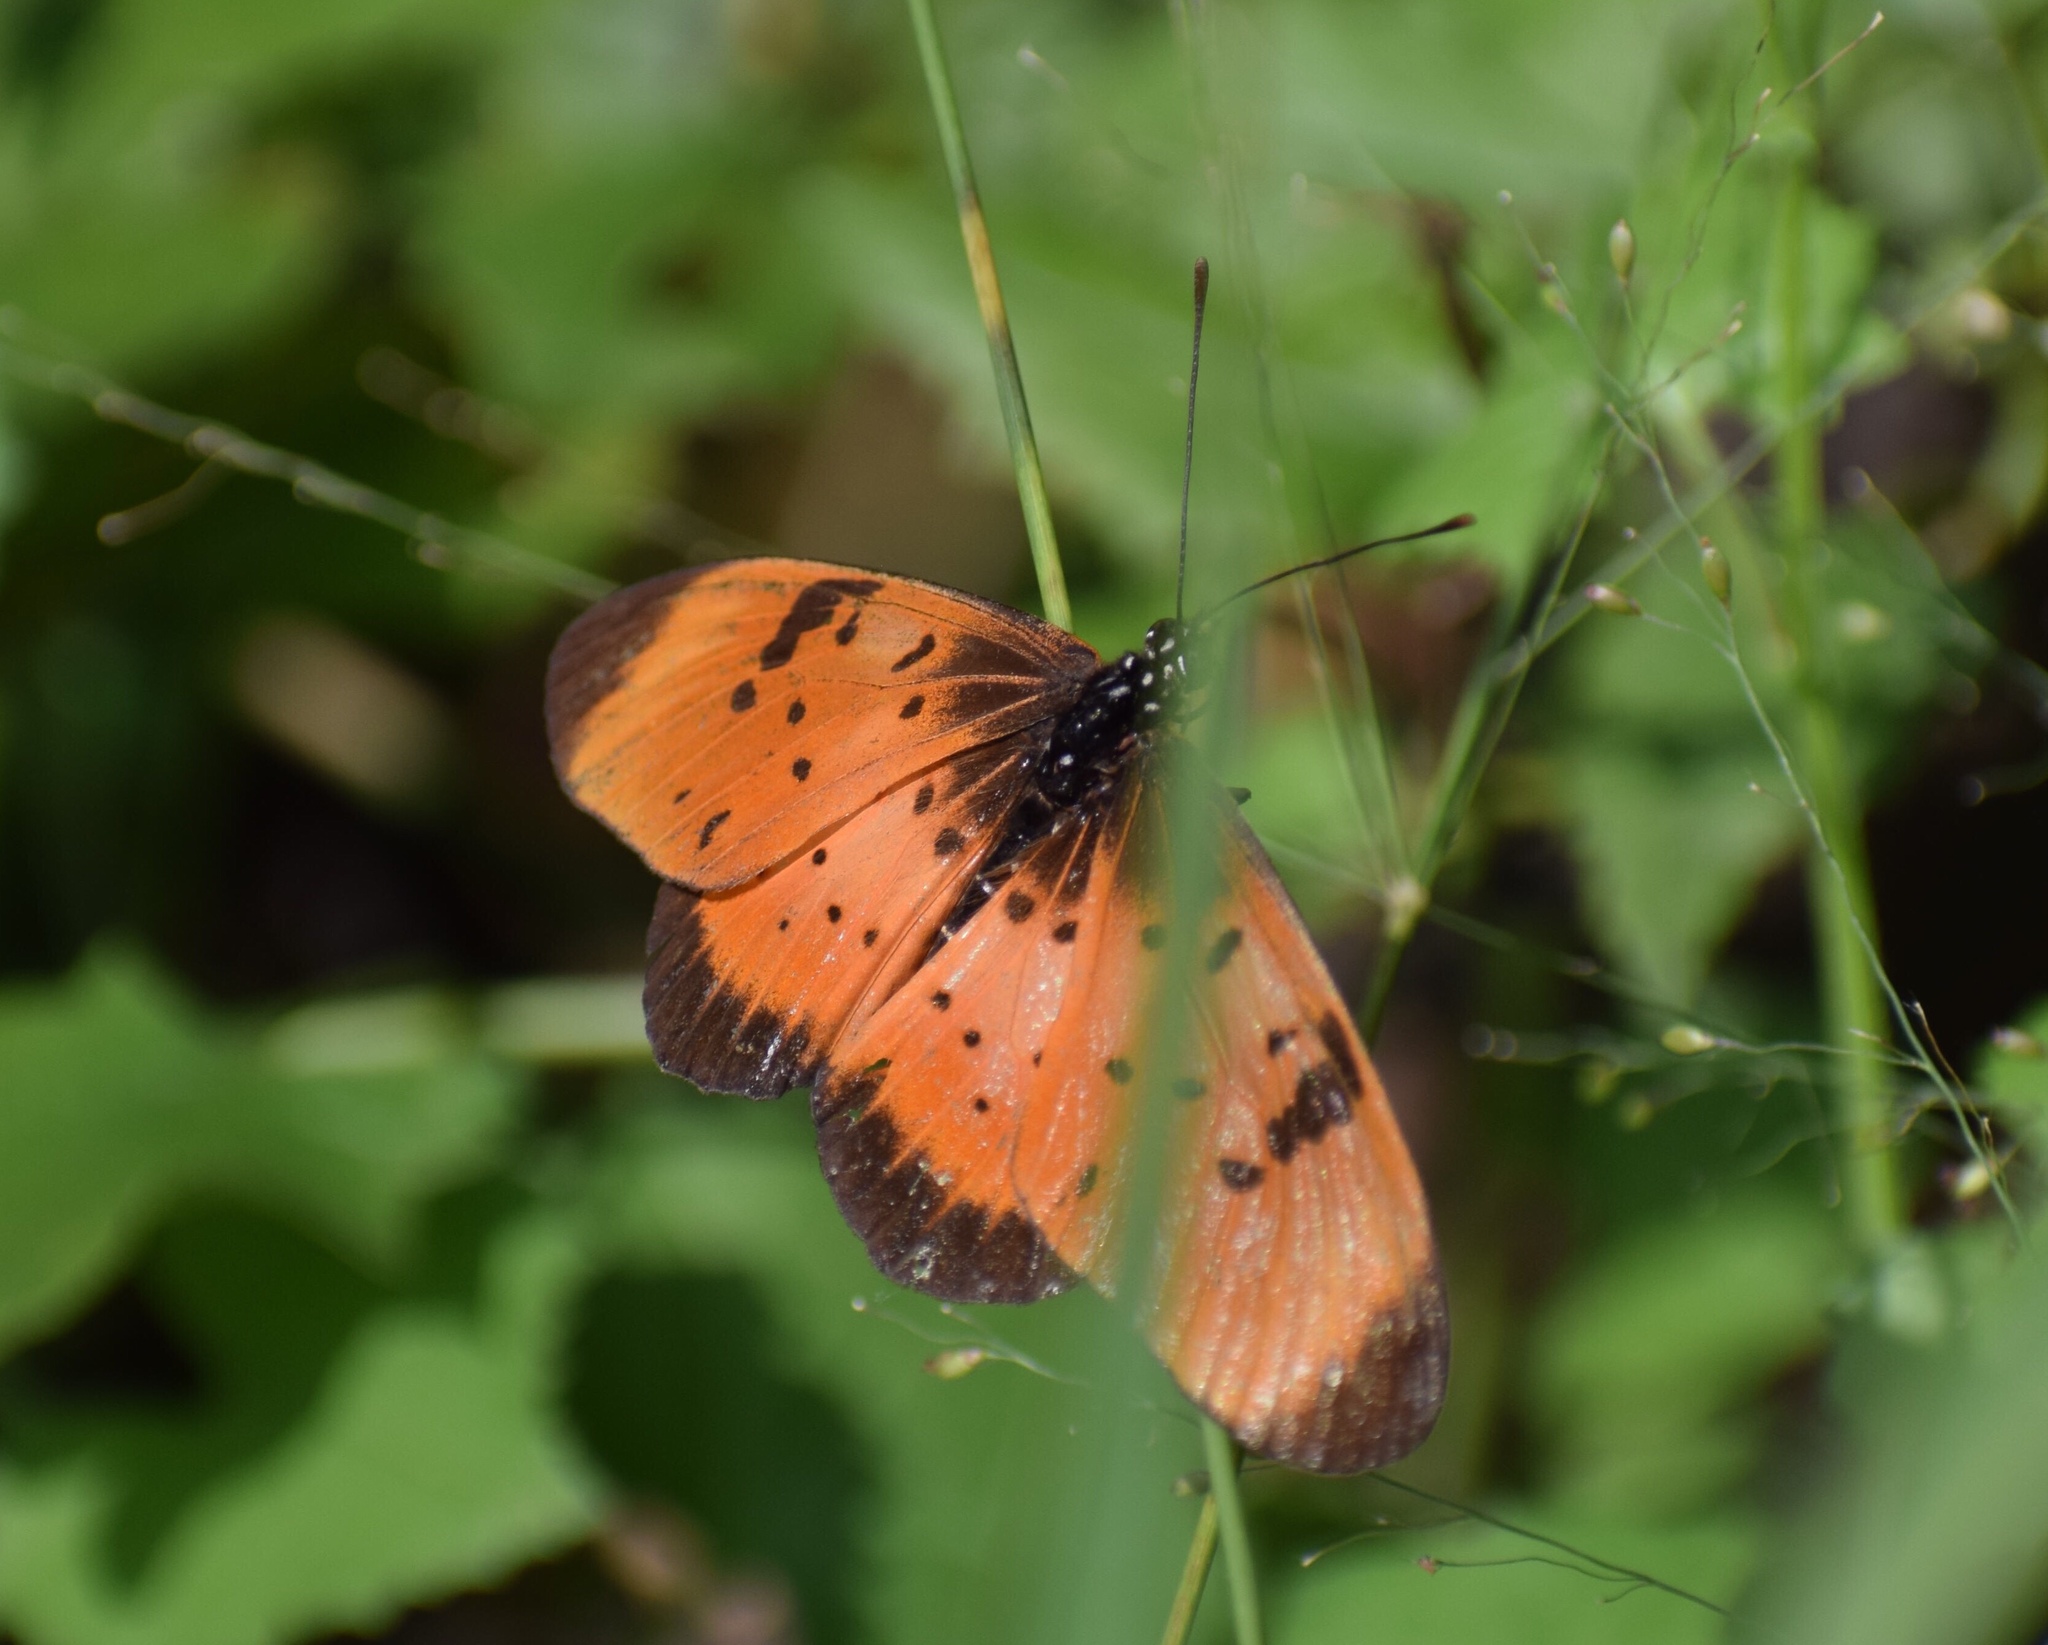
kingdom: Animalia
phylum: Arthropoda
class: Insecta
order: Lepidoptera
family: Nymphalidae
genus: Stephenia
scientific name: Stephenia
